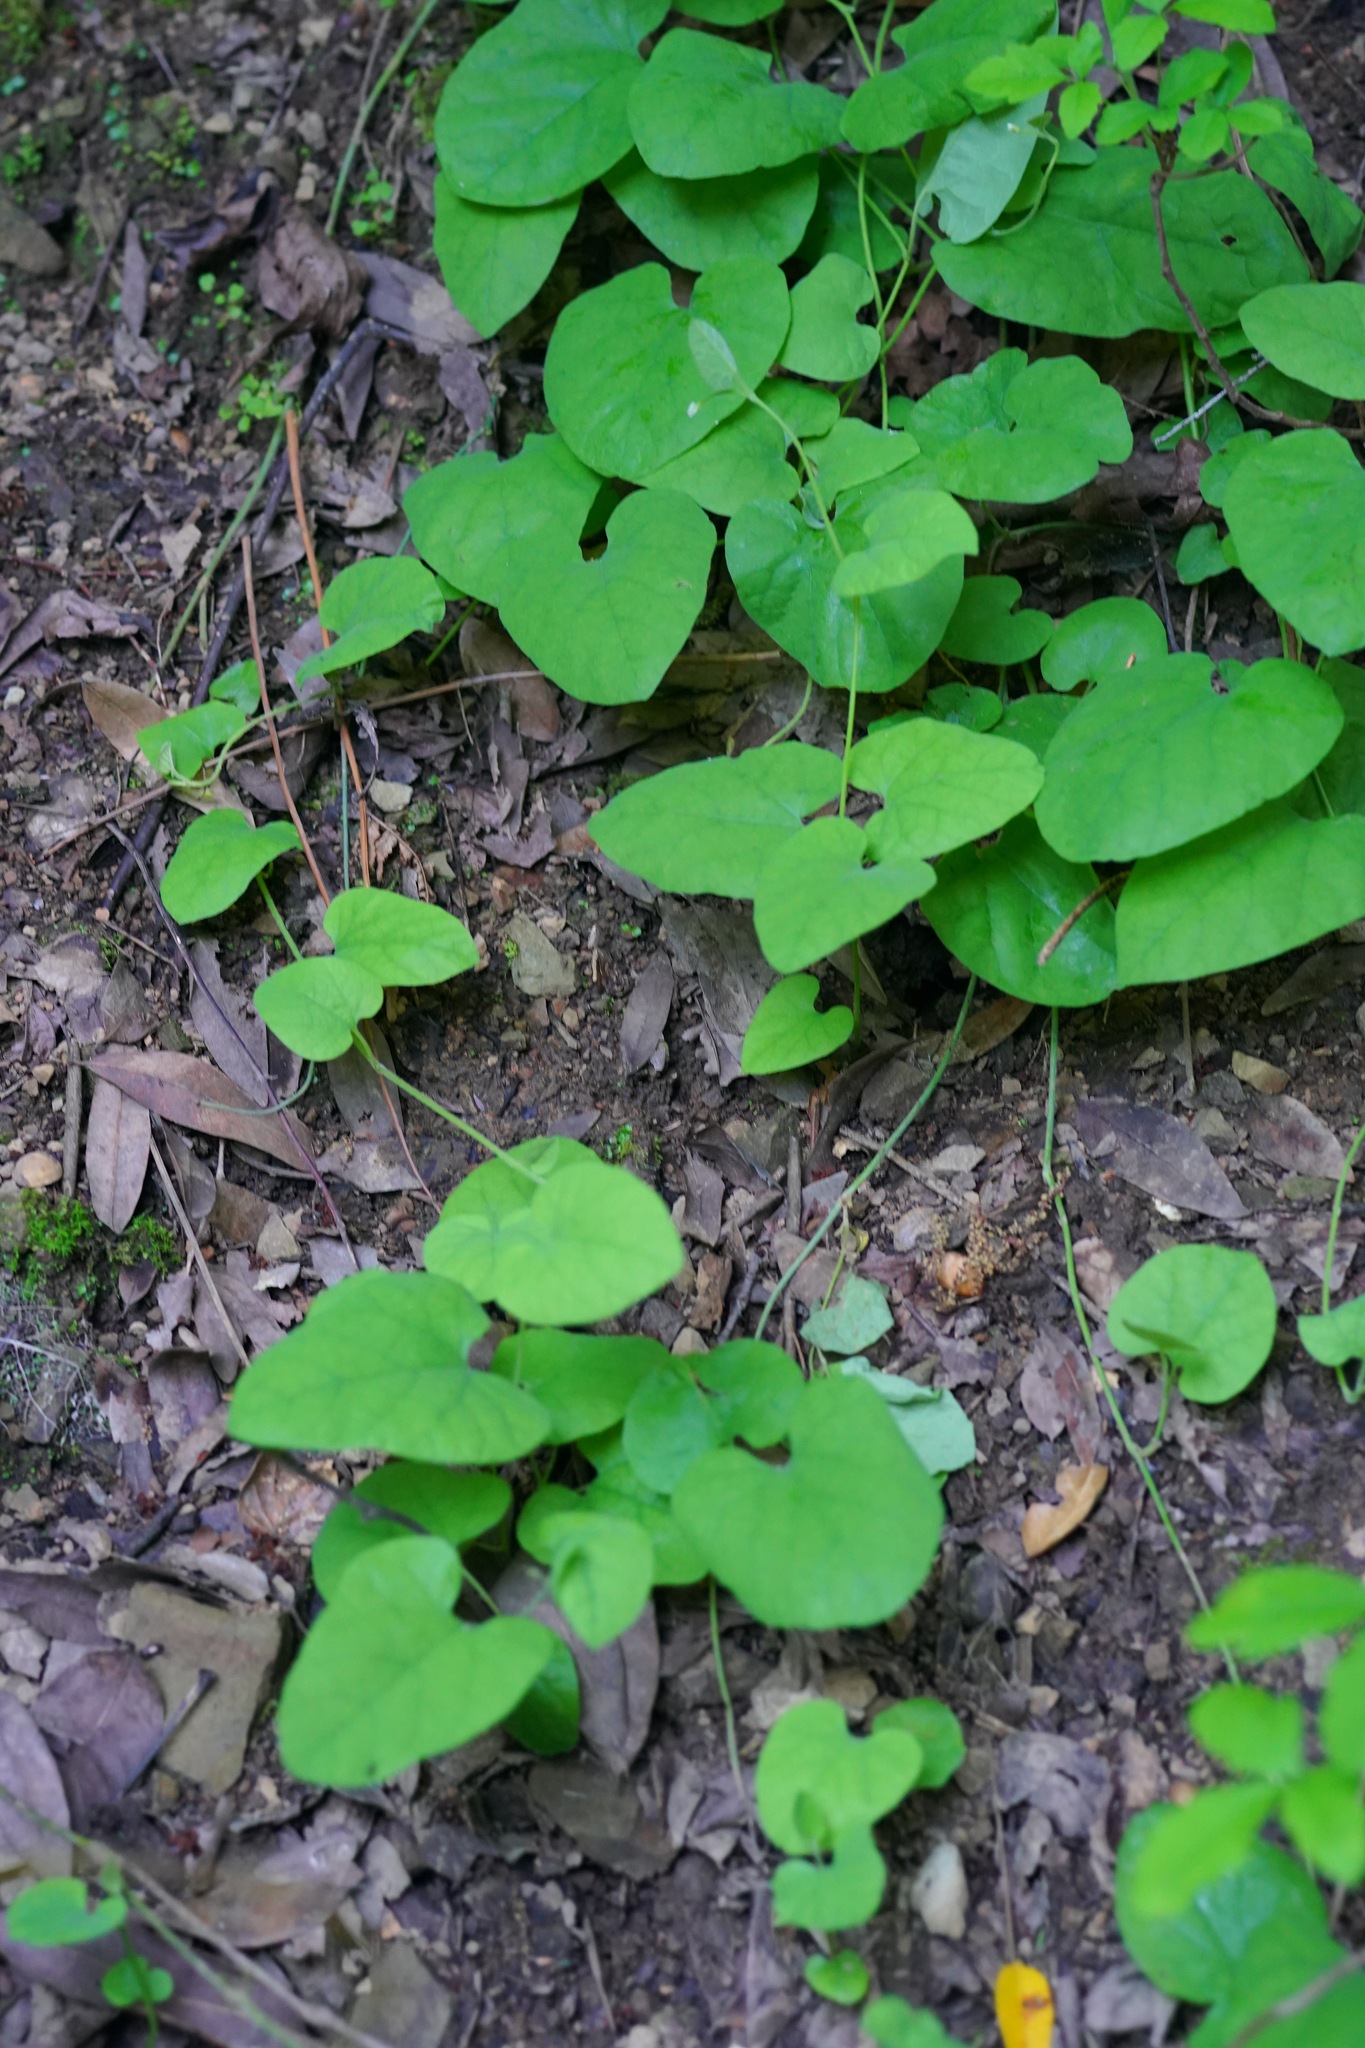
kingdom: Plantae
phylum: Tracheophyta
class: Magnoliopsida
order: Piperales
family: Aristolochiaceae
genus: Isotrema
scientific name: Isotrema californicum
